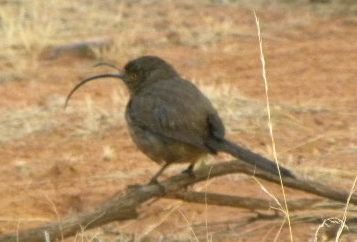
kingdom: Animalia
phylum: Chordata
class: Aves
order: Passeriformes
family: Mimidae
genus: Toxostoma
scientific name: Toxostoma curvirostre
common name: Curve-billed thrasher
